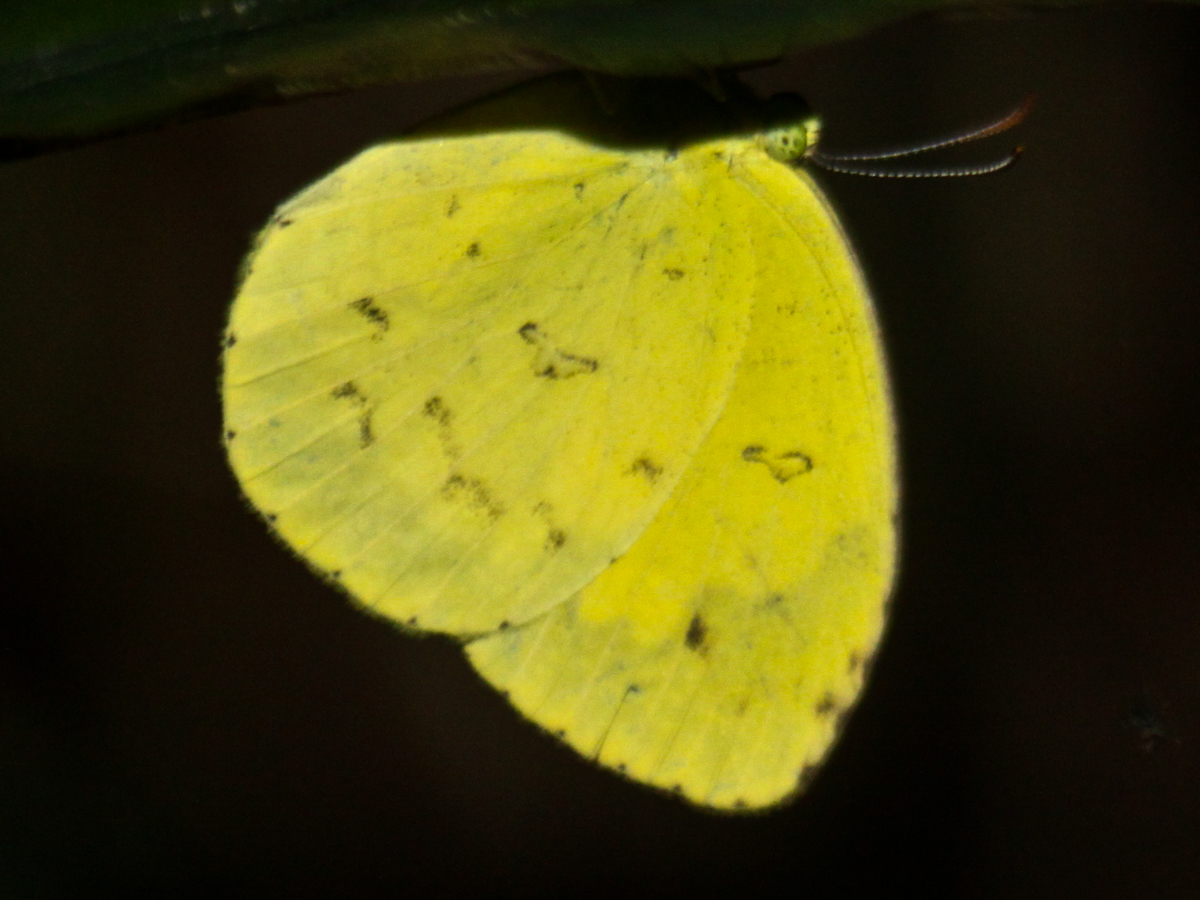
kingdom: Animalia
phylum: Arthropoda
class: Insecta
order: Lepidoptera
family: Pieridae
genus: Eurema
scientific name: Eurema hecabe
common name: Pale grass yellow
